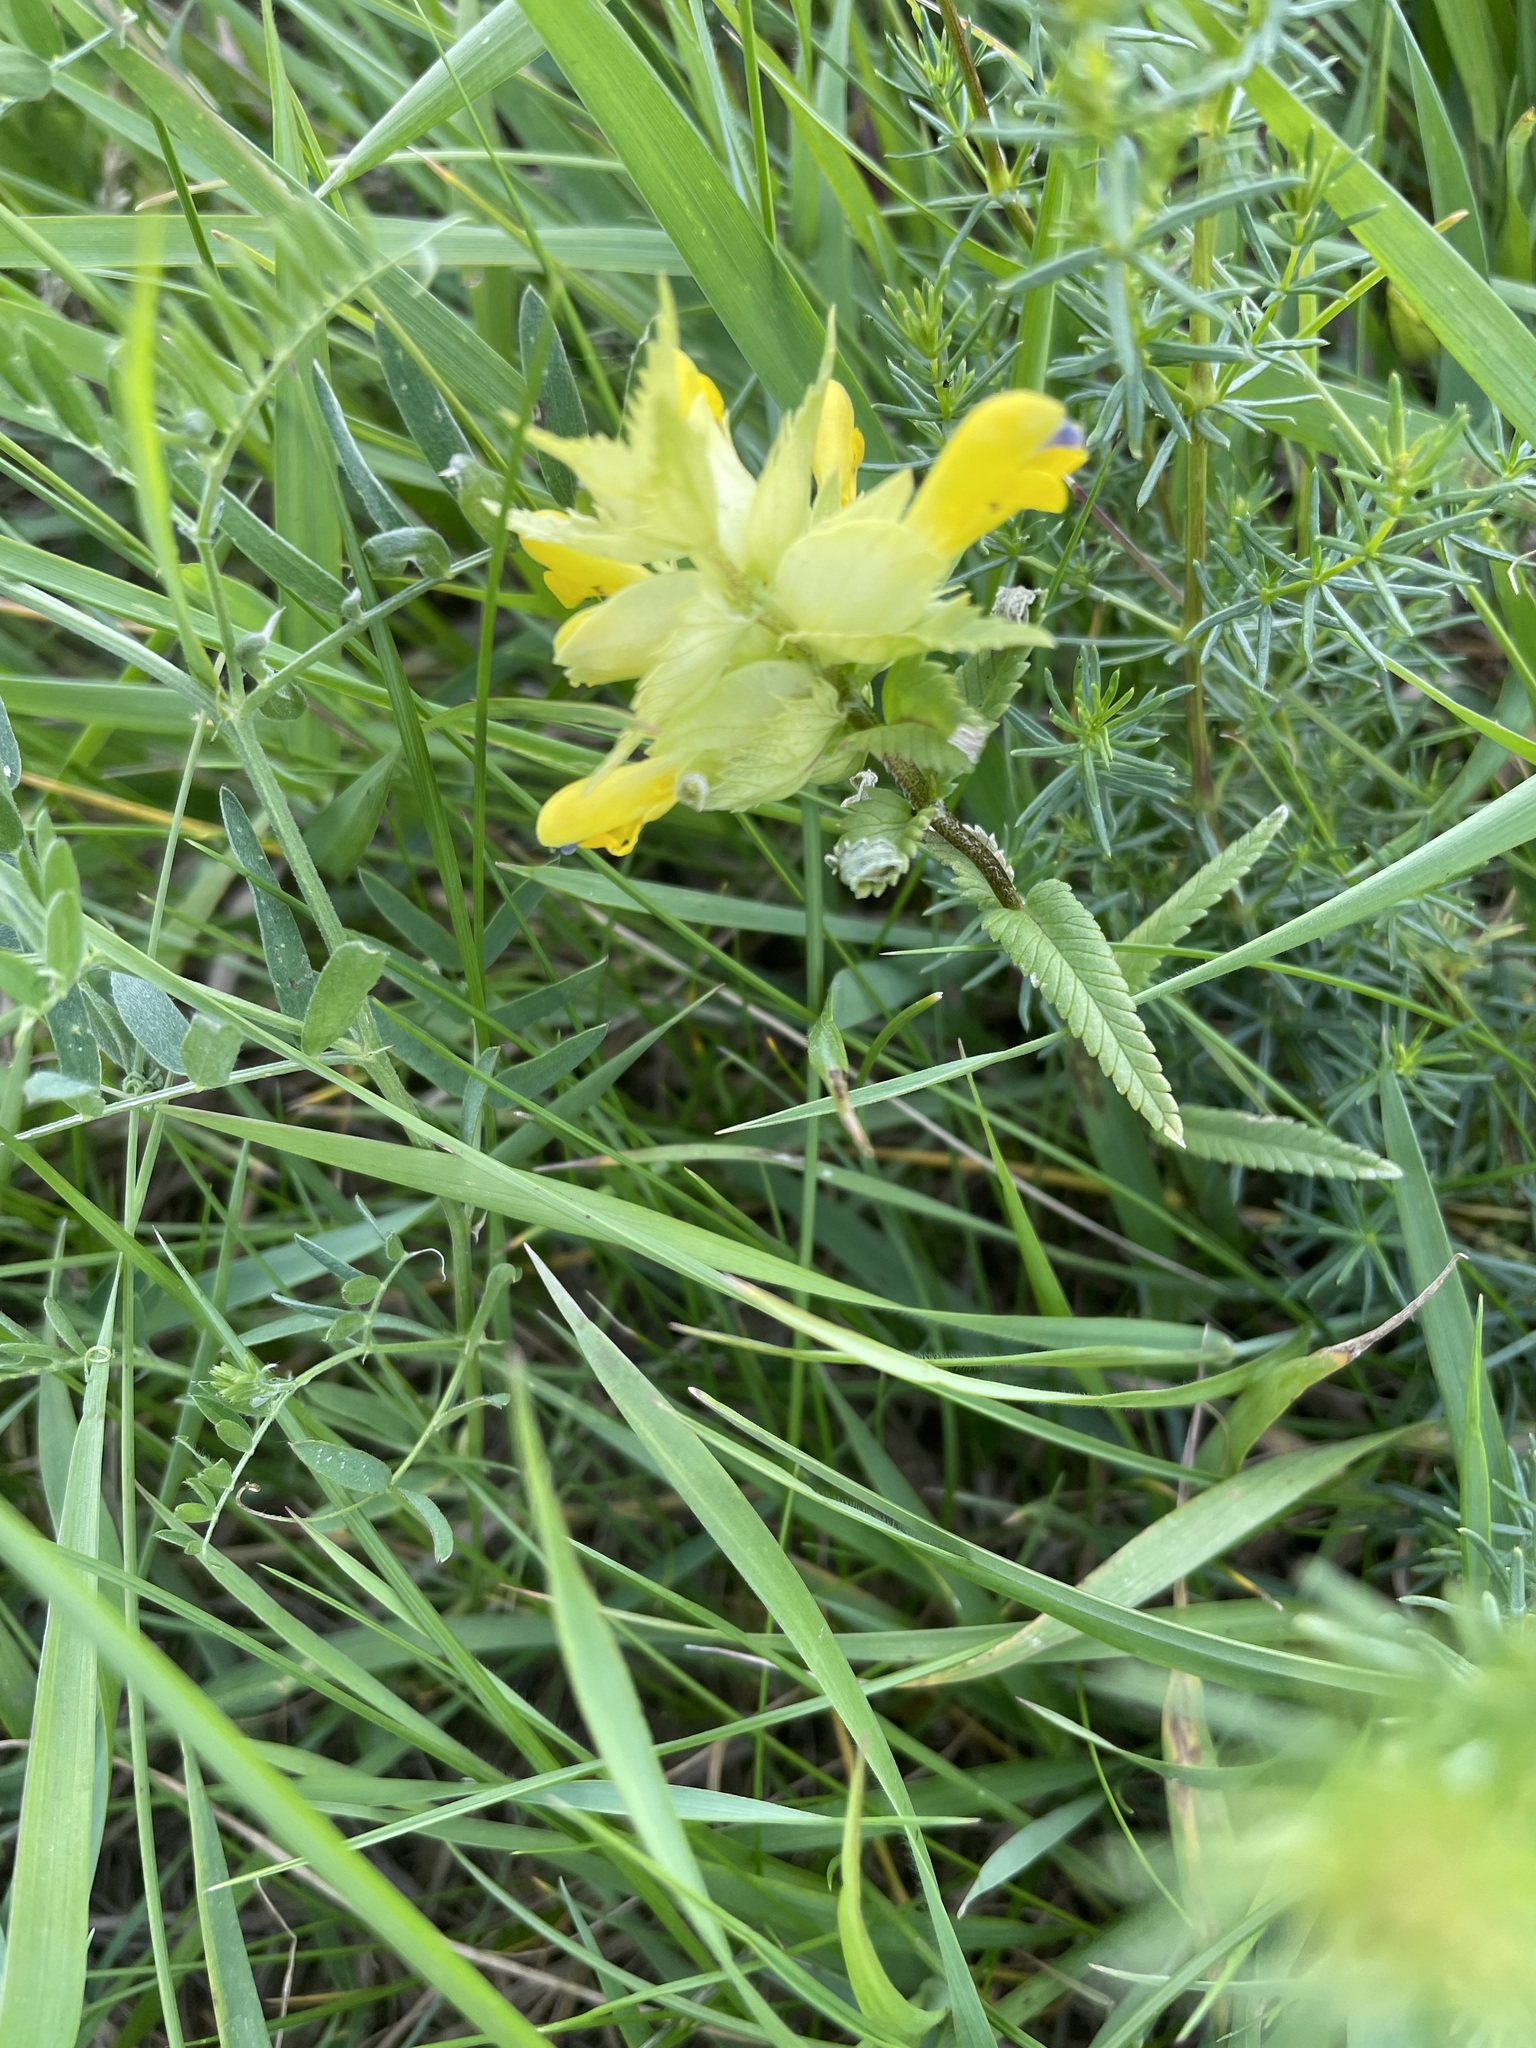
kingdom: Plantae
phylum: Tracheophyta
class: Magnoliopsida
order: Lamiales
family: Orobanchaceae
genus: Rhinanthus
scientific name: Rhinanthus serotinus
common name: Late-flowering yellow rattle
